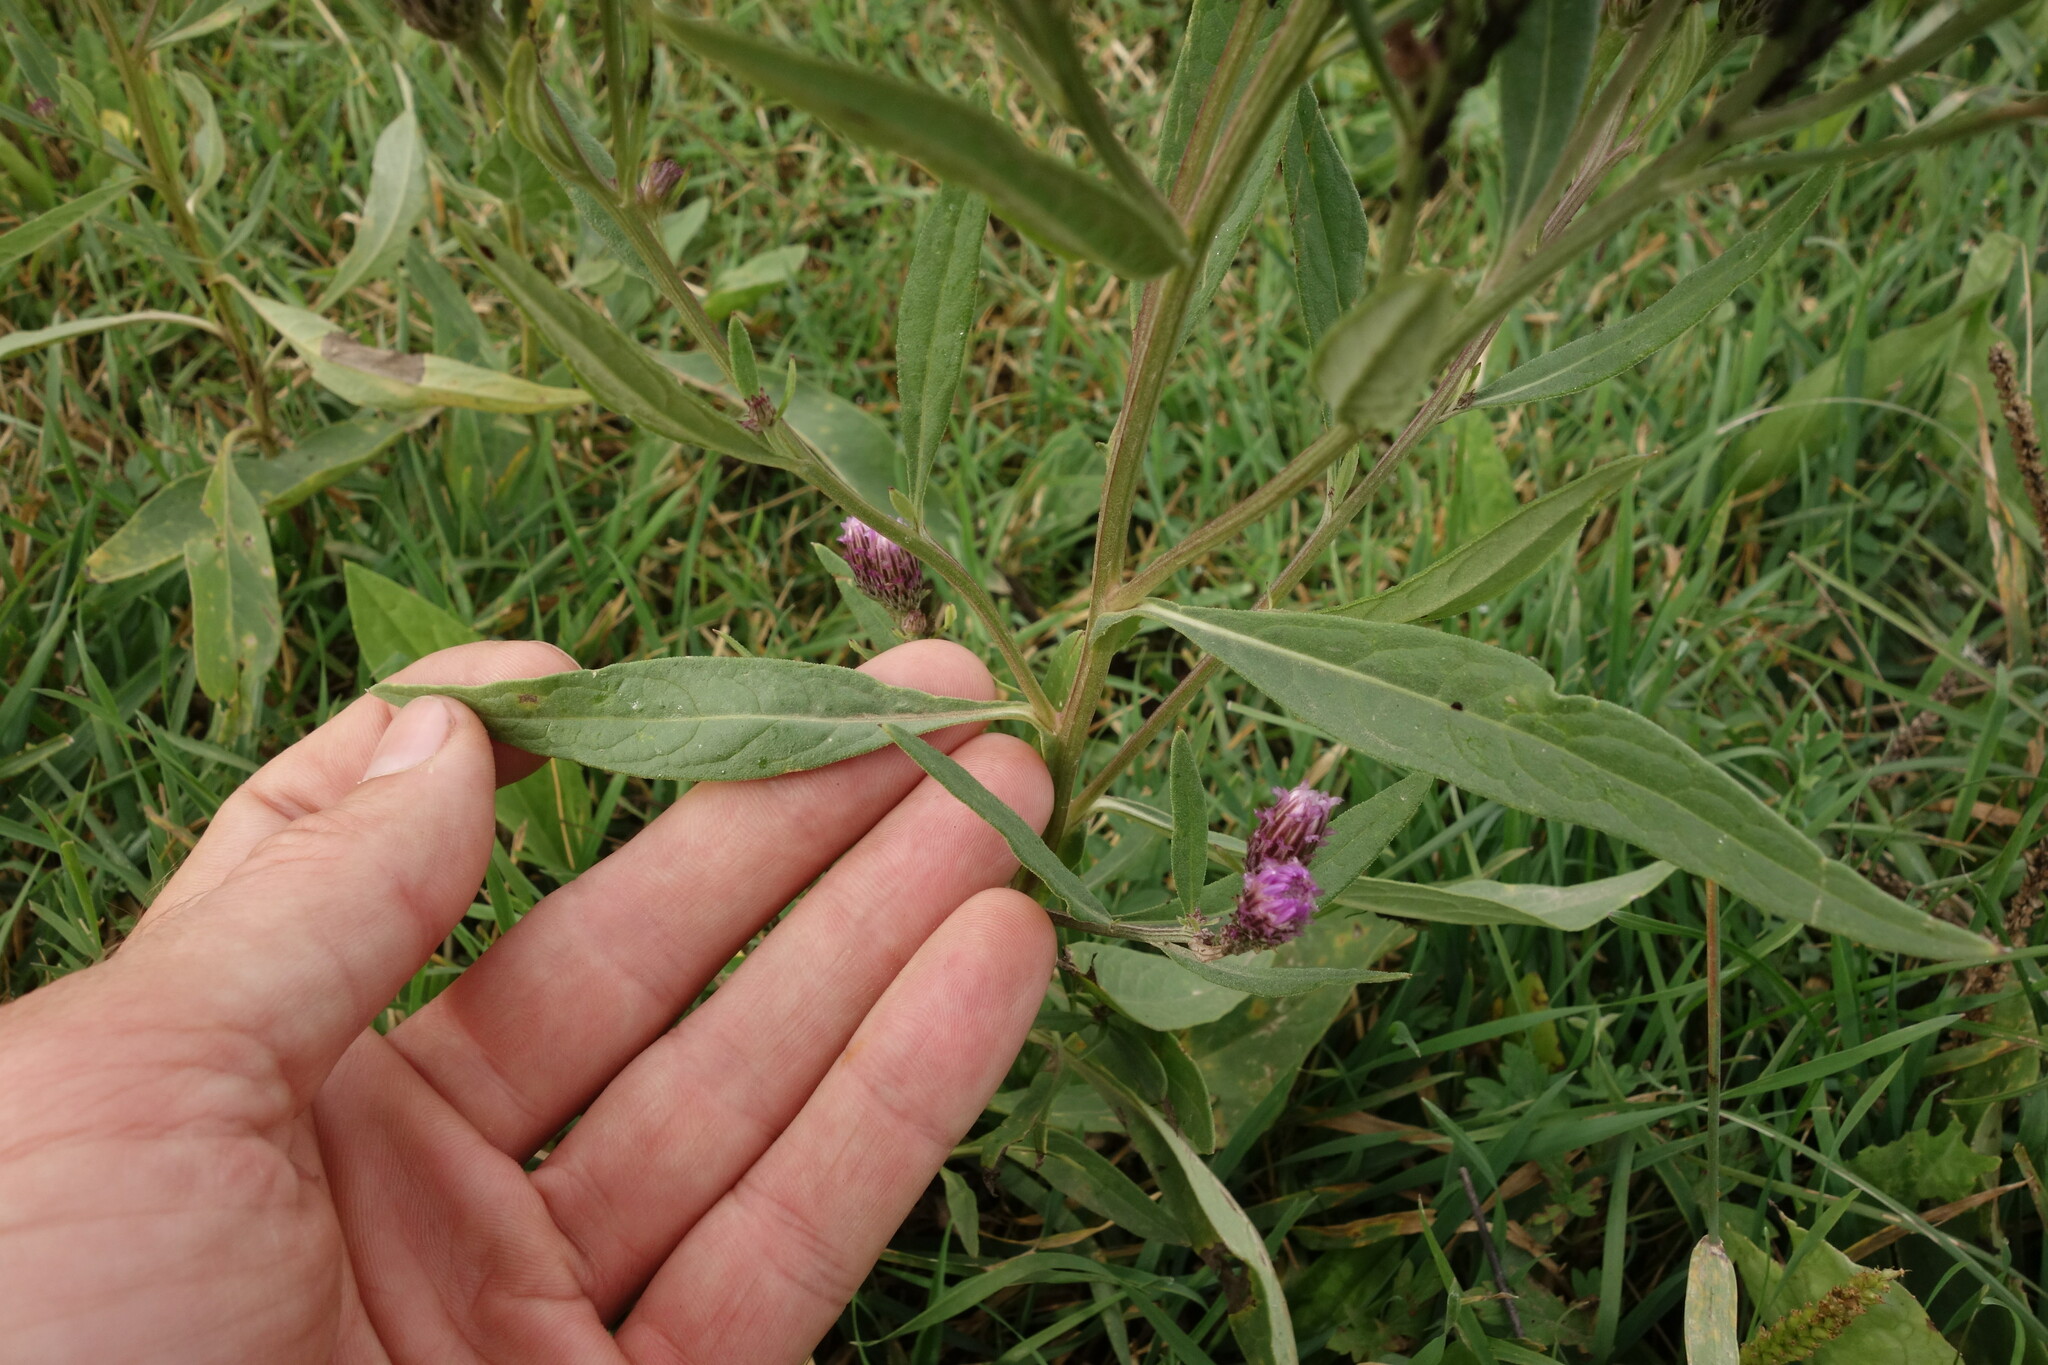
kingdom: Plantae
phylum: Tracheophyta
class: Magnoliopsida
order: Asterales
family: Asteraceae
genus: Saussurea
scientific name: Saussurea amara
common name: Alberta sawwort
